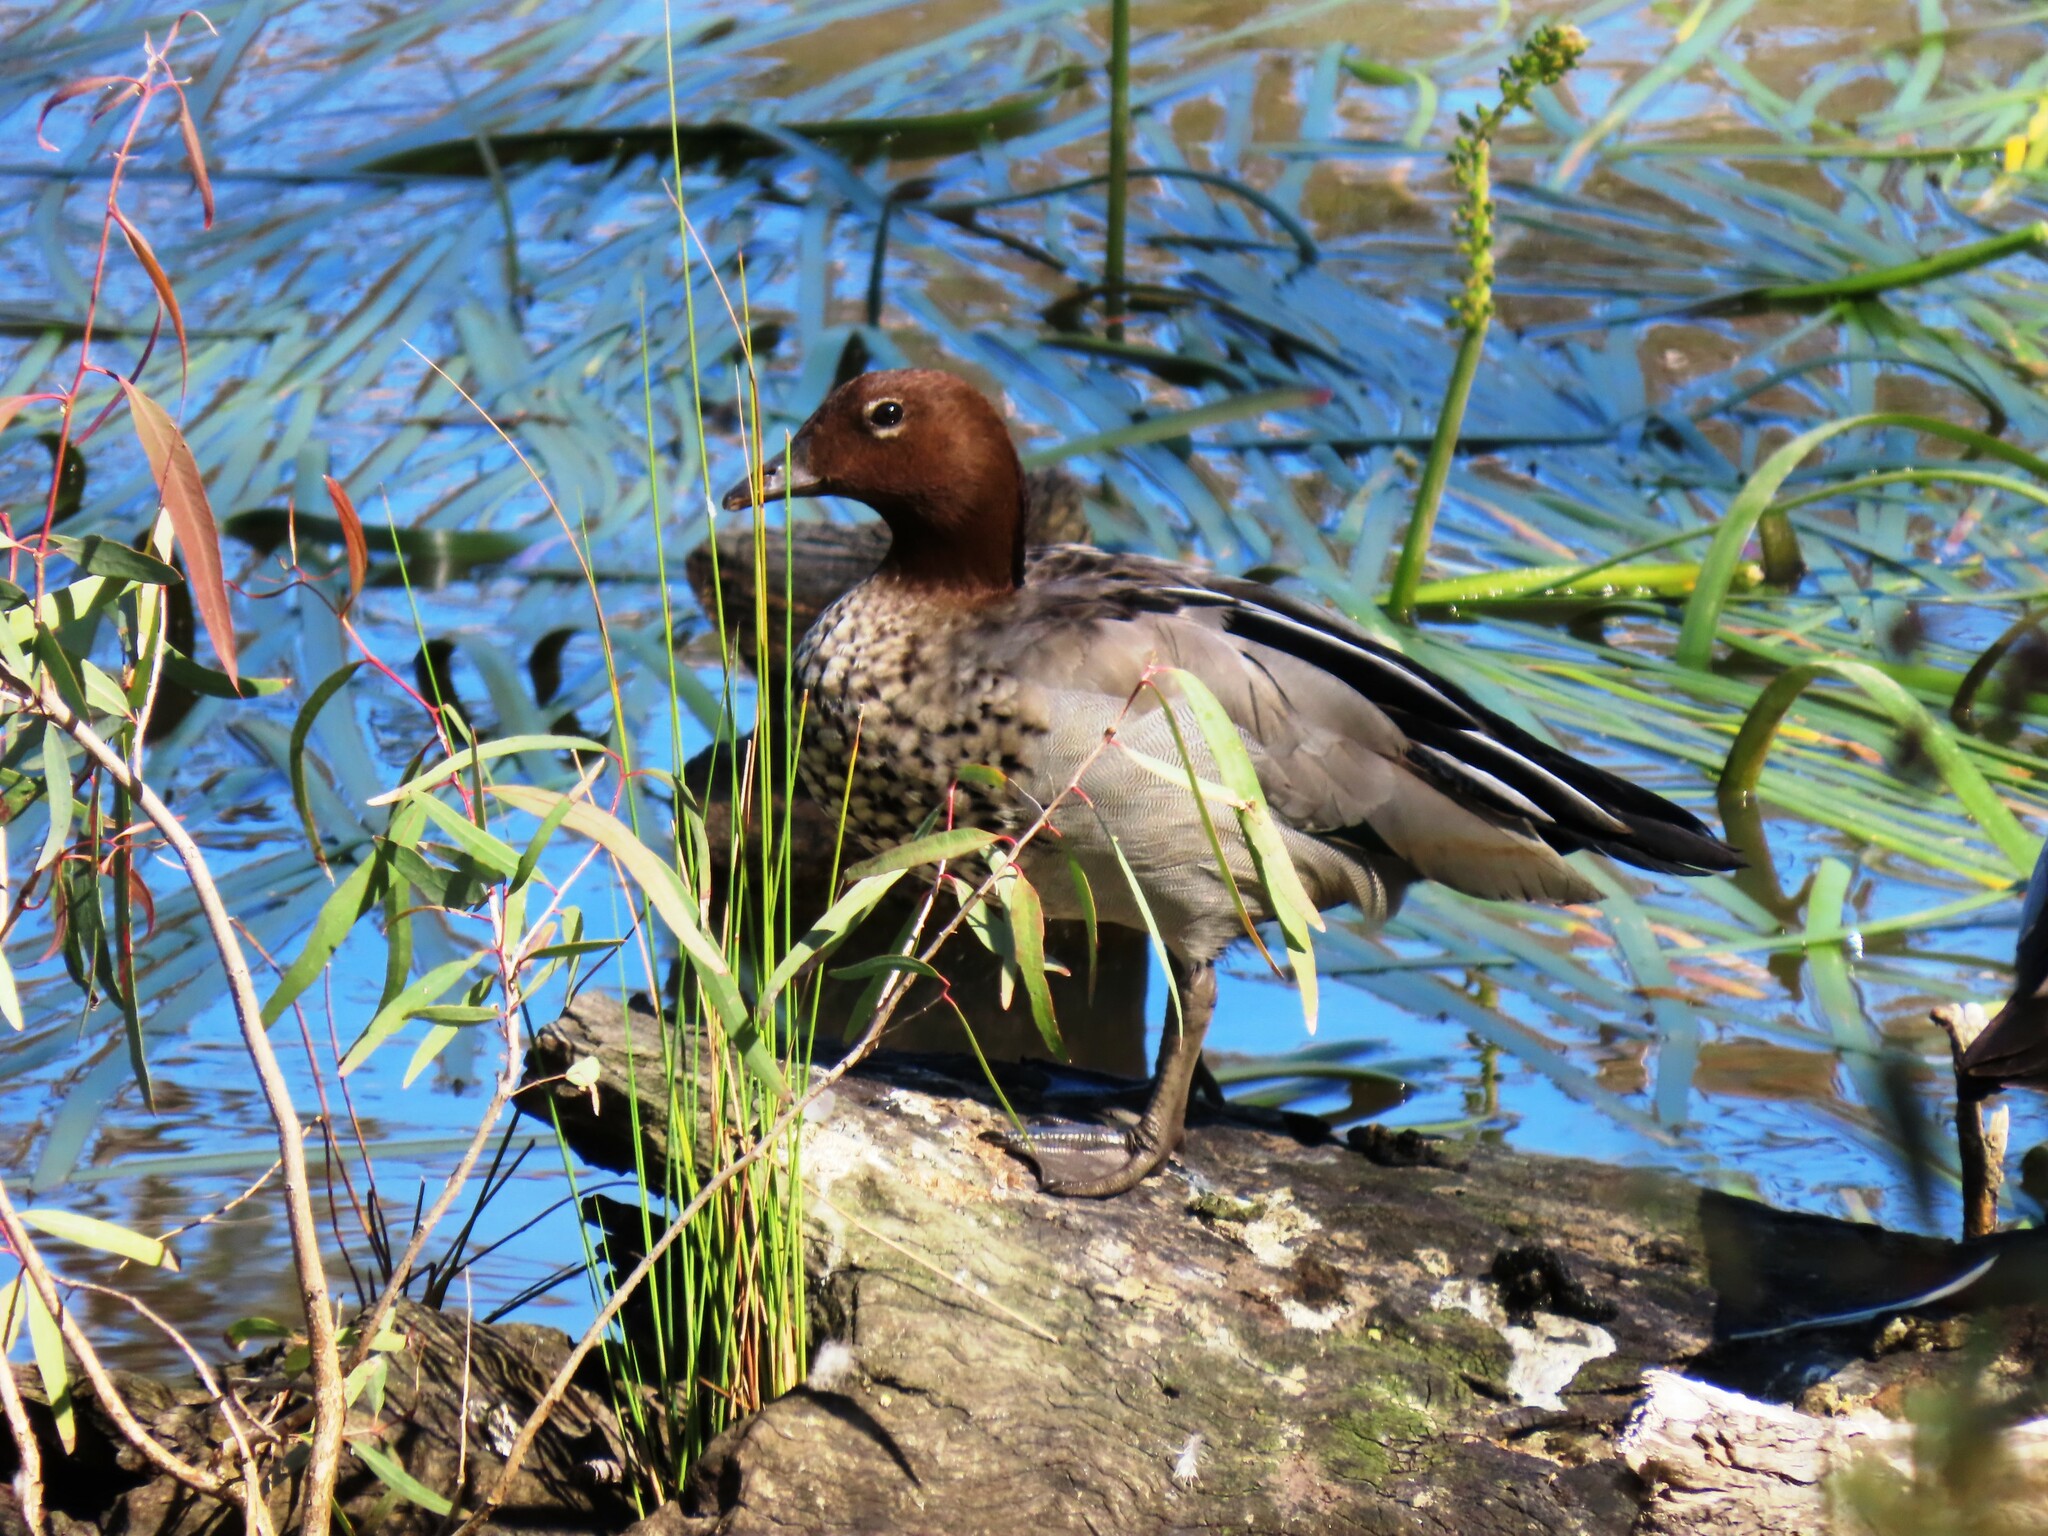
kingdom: Animalia
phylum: Chordata
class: Aves
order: Anseriformes
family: Anatidae
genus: Chenonetta
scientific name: Chenonetta jubata
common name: Maned duck
